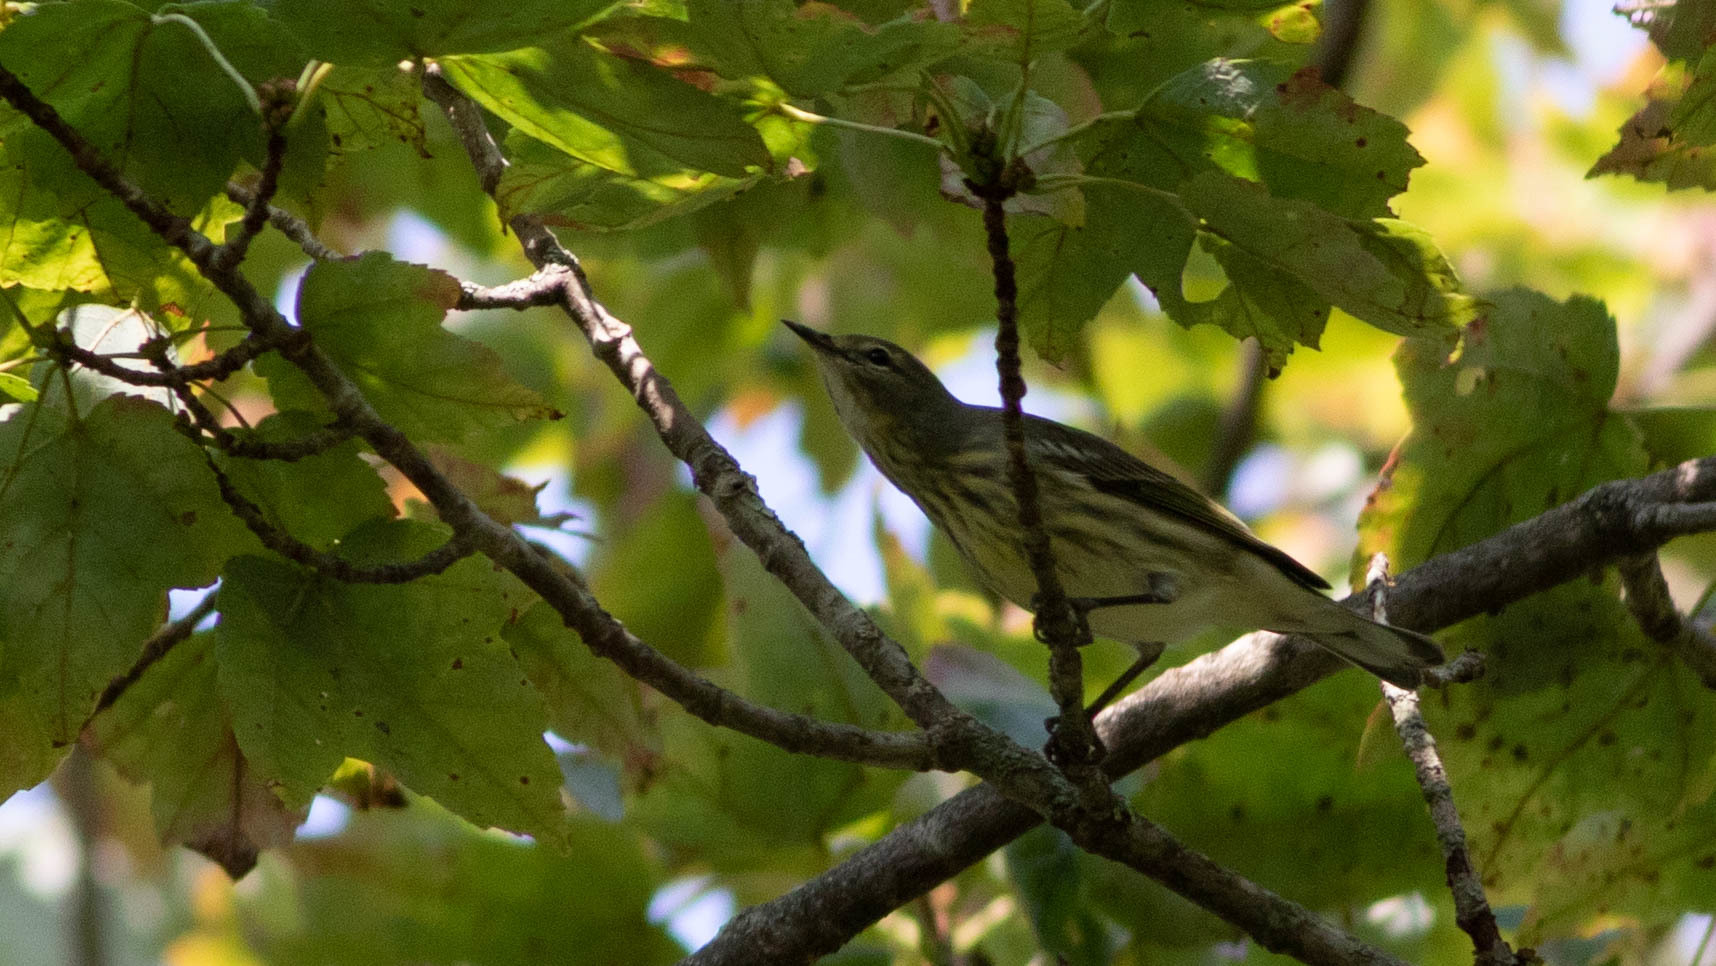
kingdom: Animalia
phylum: Chordata
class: Aves
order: Passeriformes
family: Parulidae
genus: Setophaga
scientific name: Setophaga tigrina
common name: Cape may warbler
